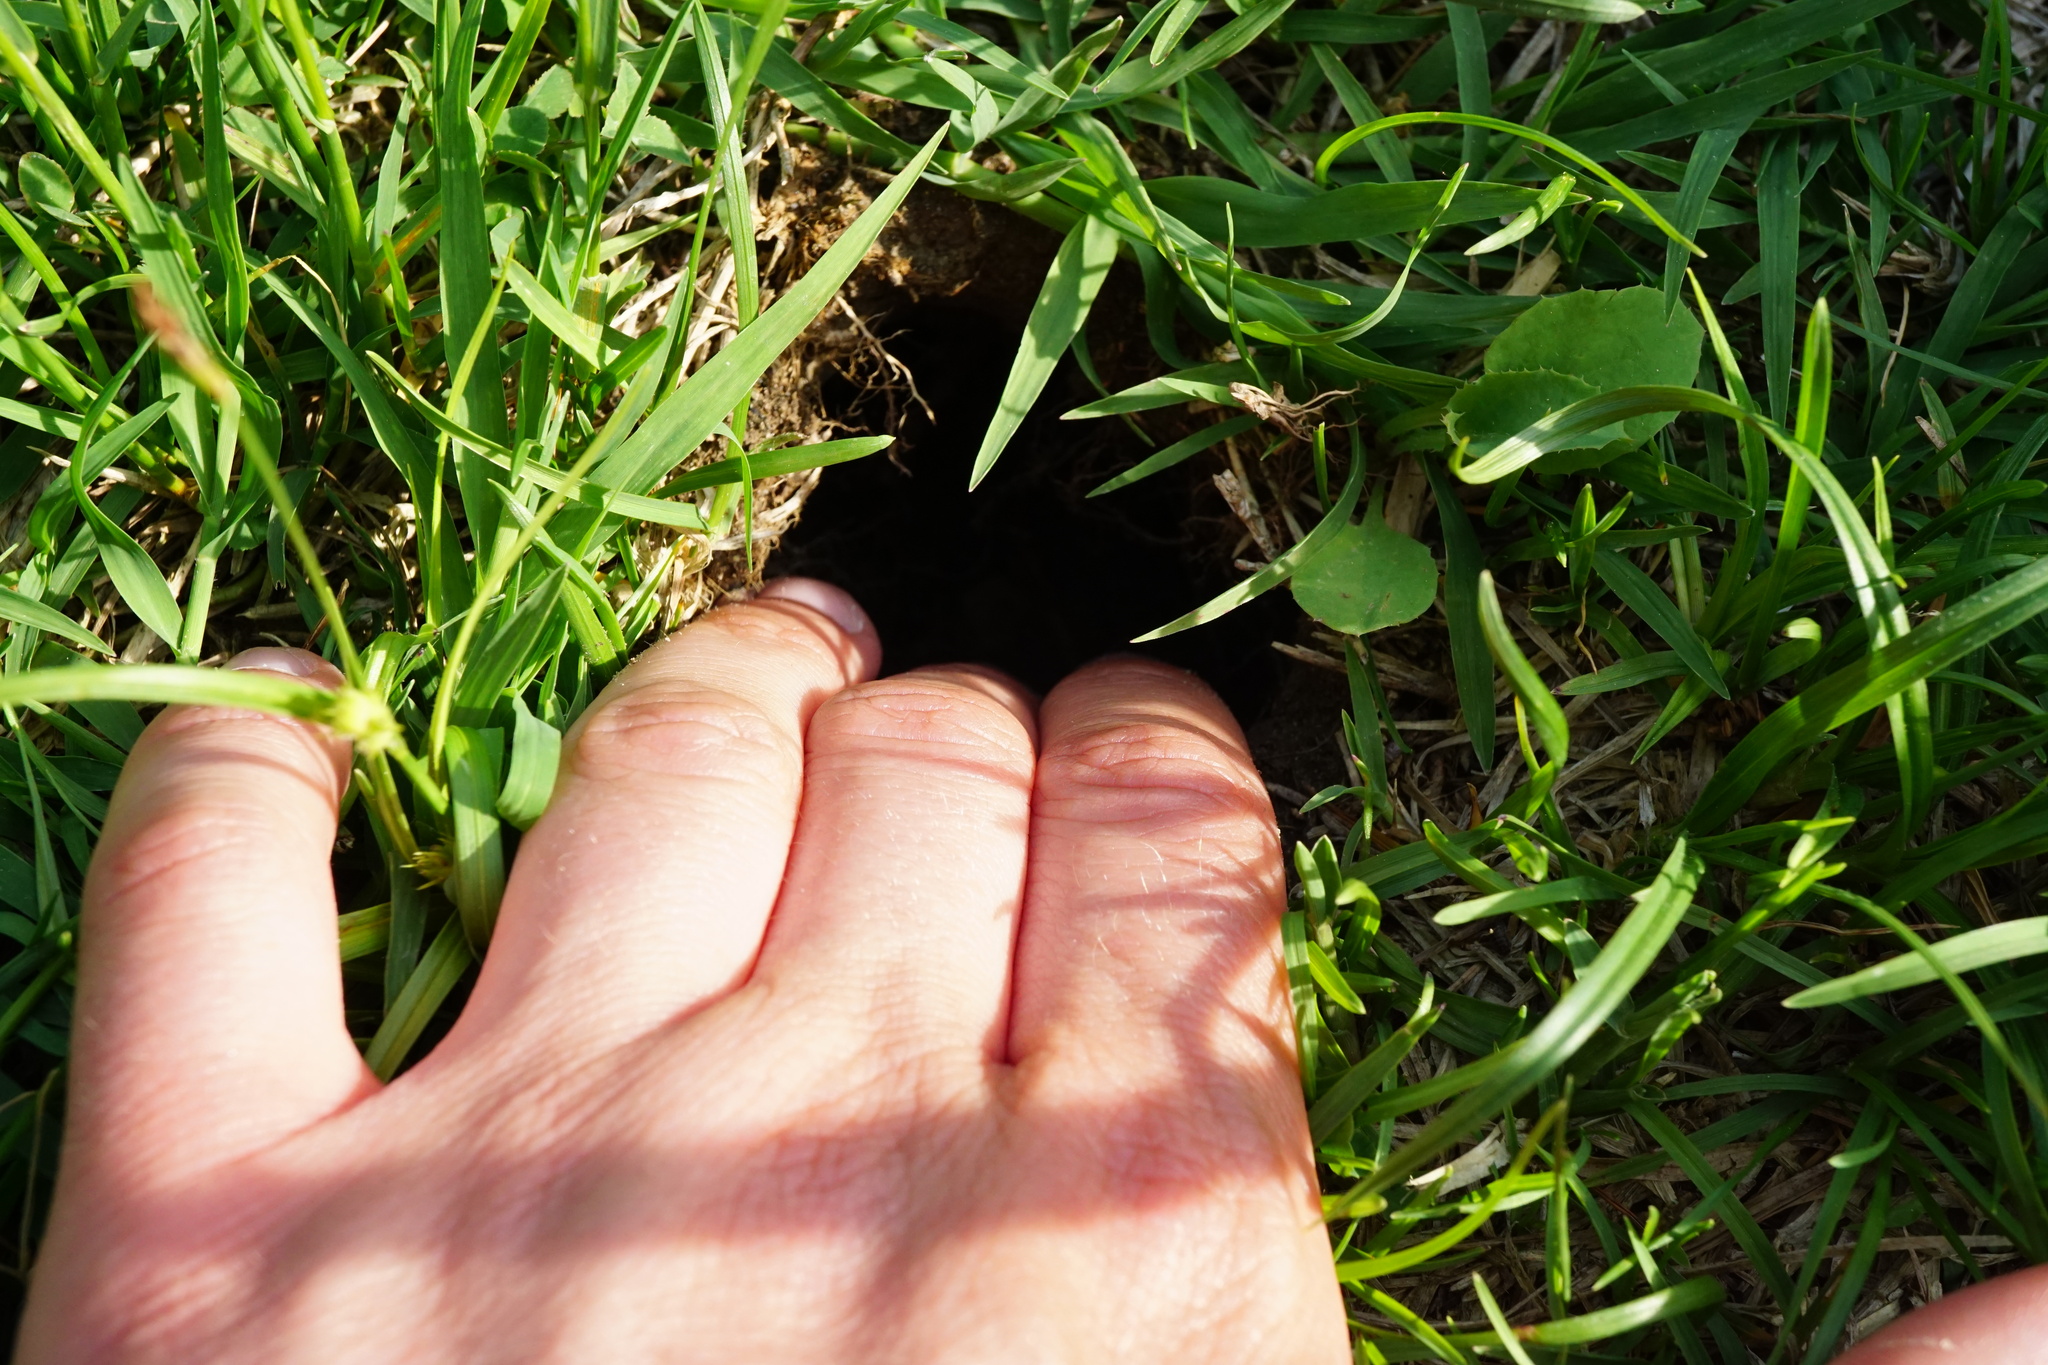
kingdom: Animalia
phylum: Chordata
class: Mammalia
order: Rodentia
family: Cricetidae
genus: Cricetus
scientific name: Cricetus cricetus
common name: Common hamster
